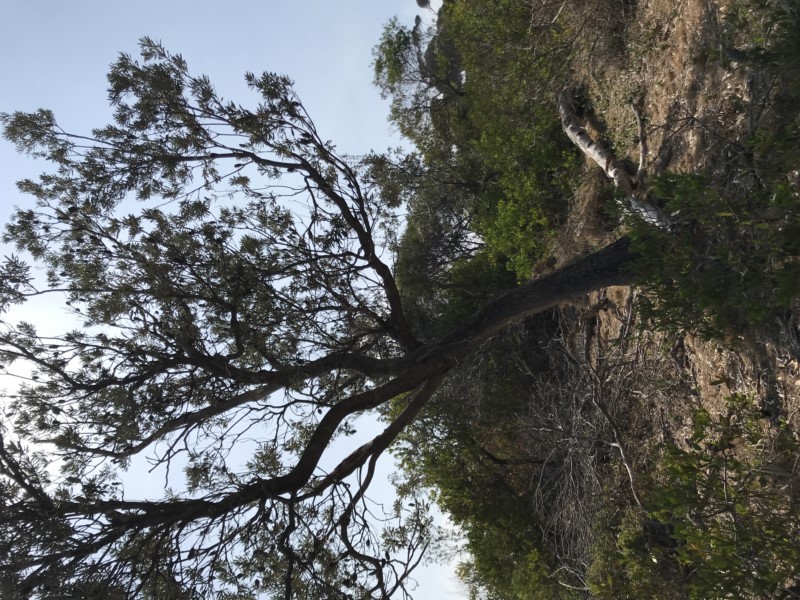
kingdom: Plantae
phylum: Tracheophyta
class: Magnoliopsida
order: Proteales
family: Proteaceae
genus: Banksia
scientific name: Banksia integrifolia
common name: White-honeysuckle
